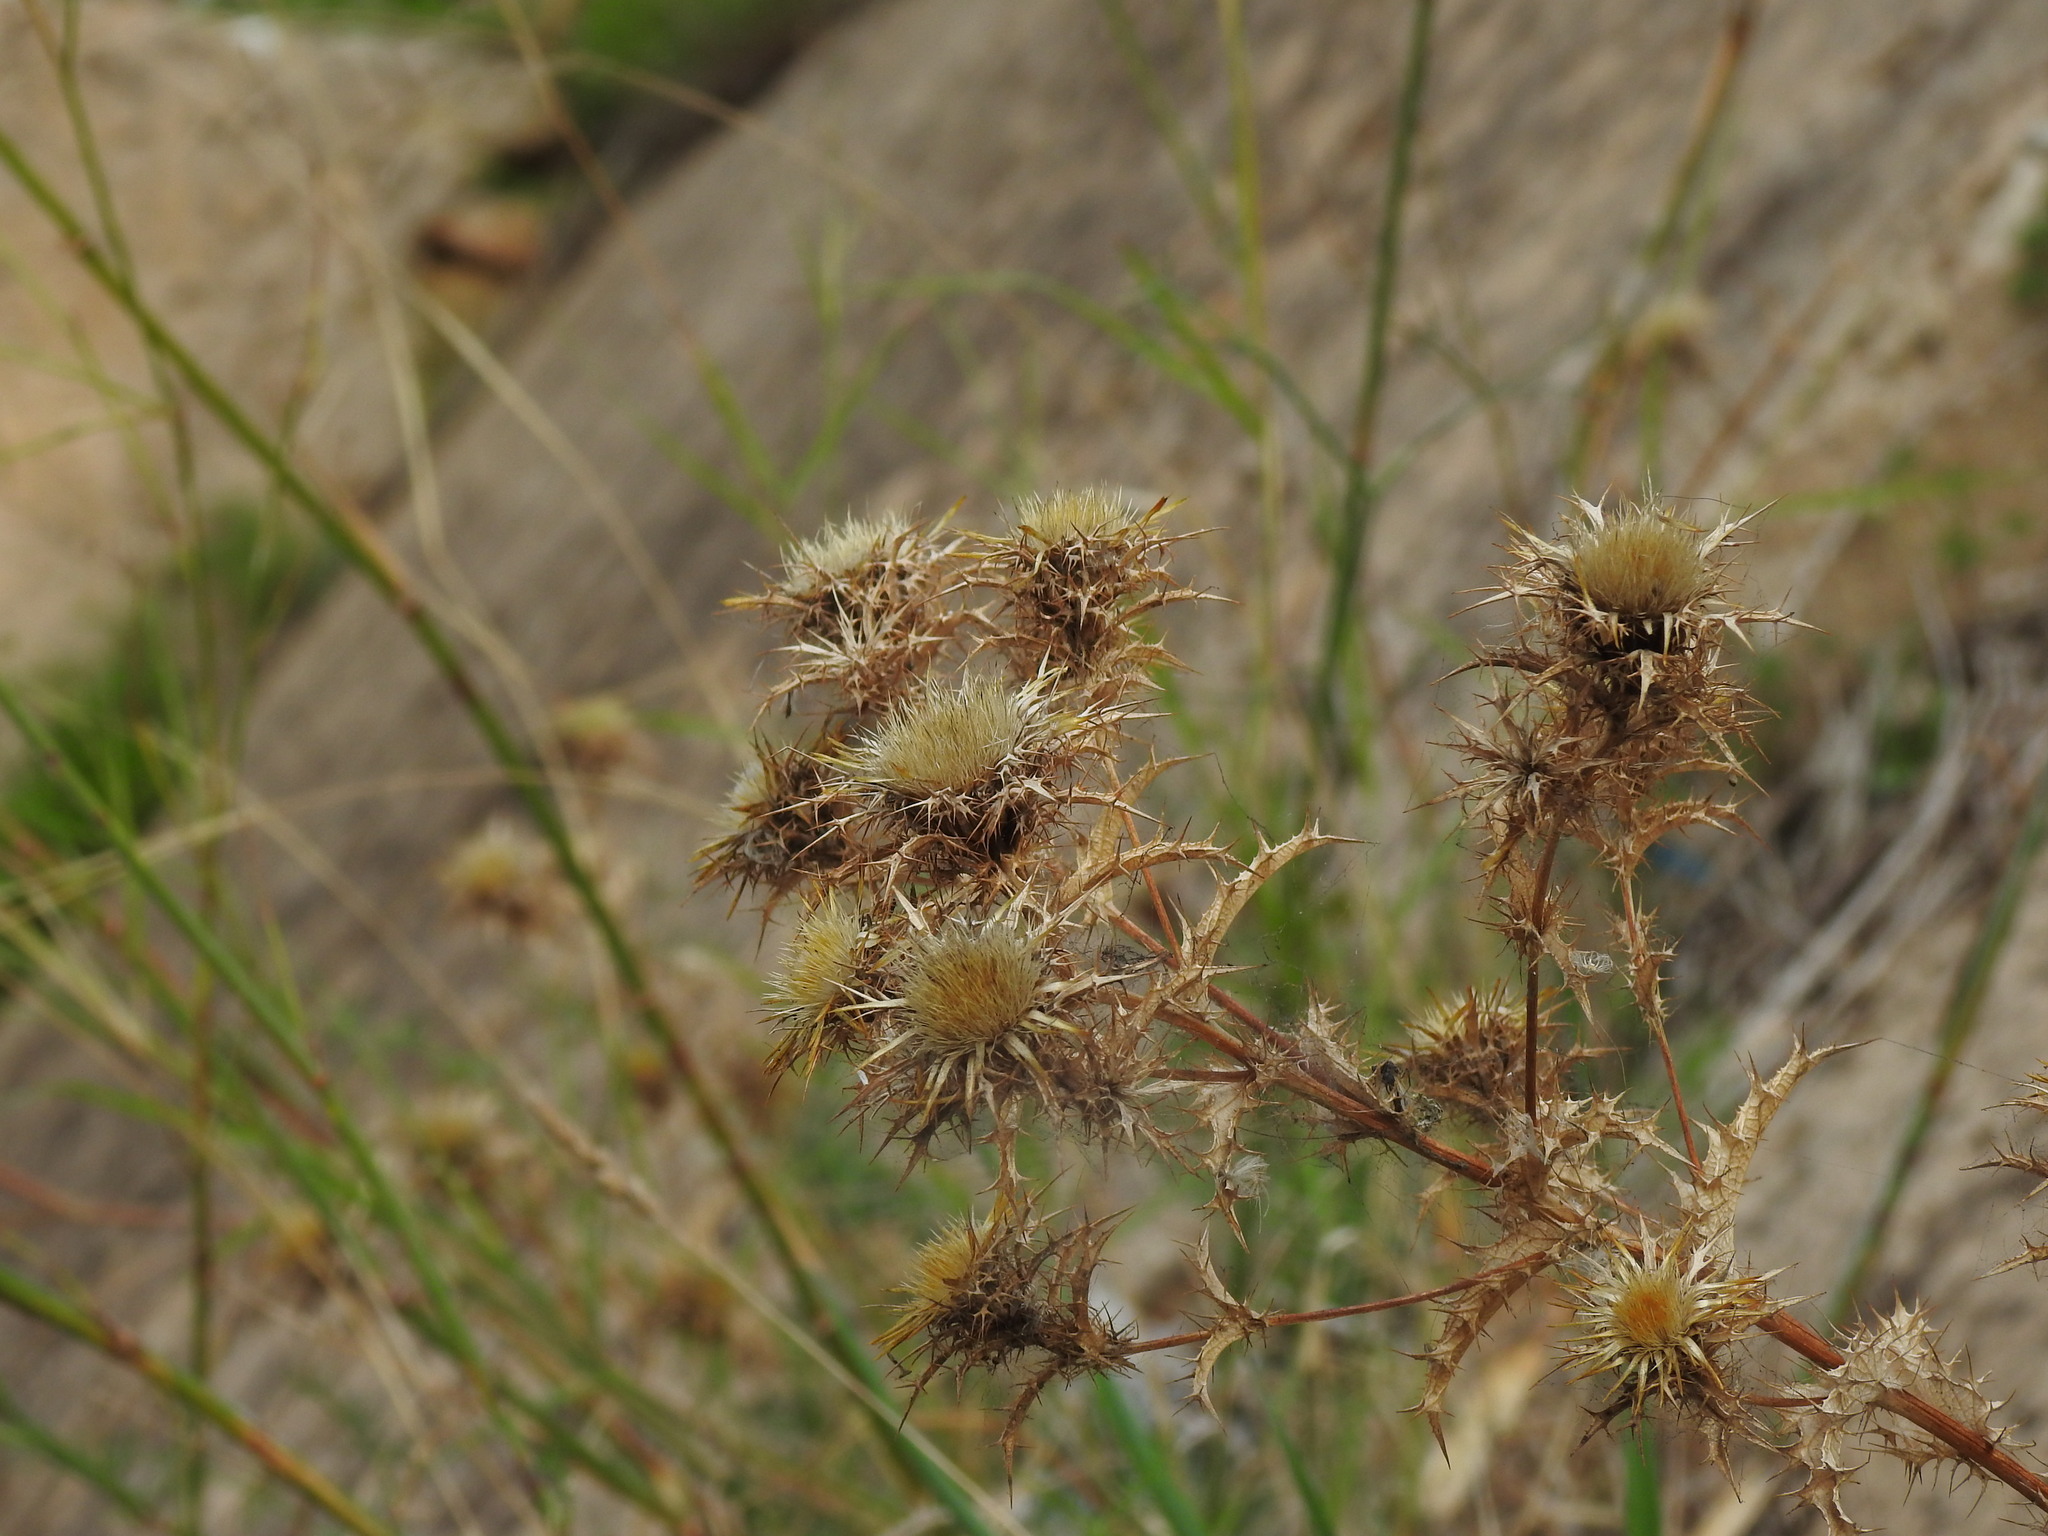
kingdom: Plantae
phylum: Tracheophyta
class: Magnoliopsida
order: Asterales
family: Asteraceae
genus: Carlina
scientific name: Carlina hispanica
